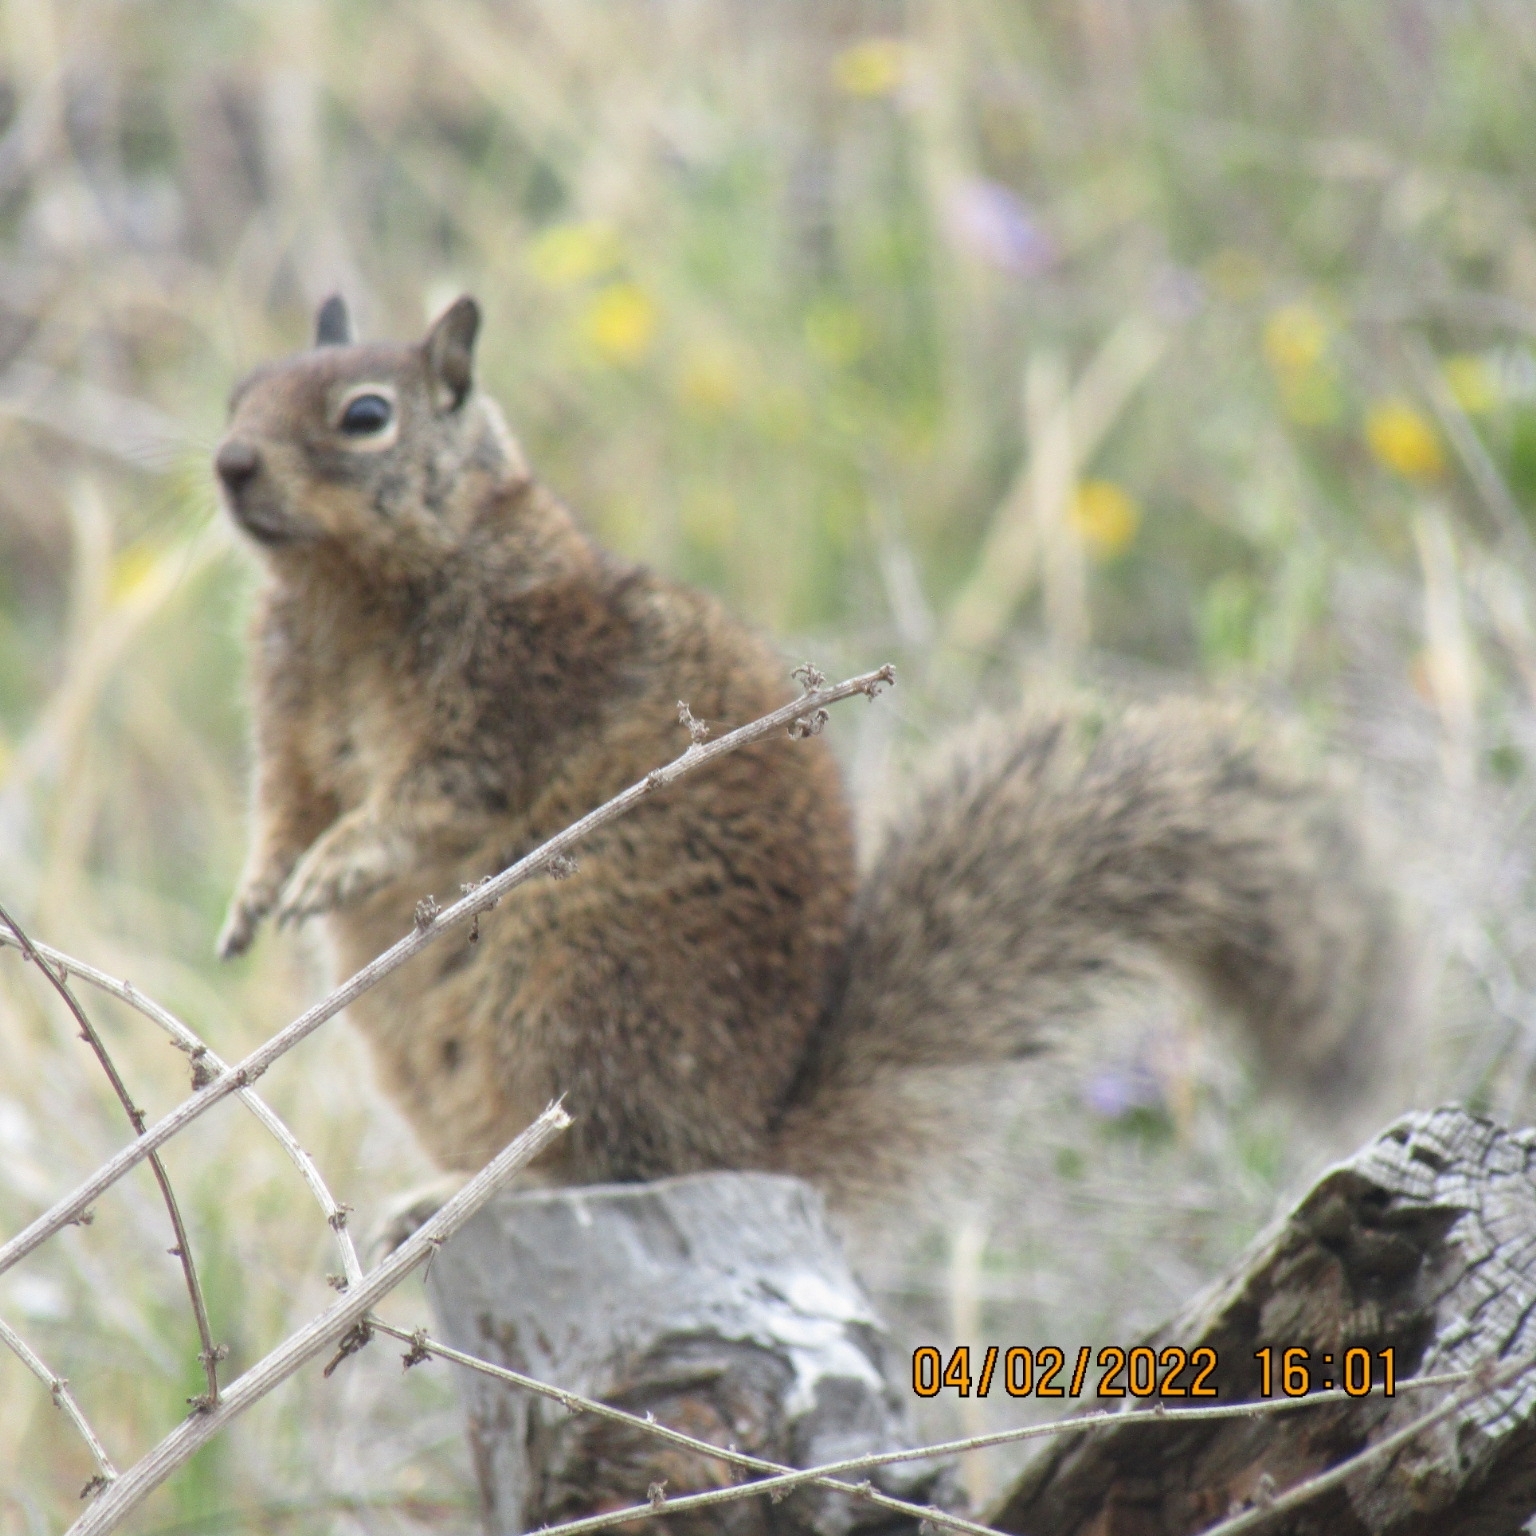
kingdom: Animalia
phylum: Chordata
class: Mammalia
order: Rodentia
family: Sciuridae
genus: Otospermophilus
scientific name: Otospermophilus beecheyi
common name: California ground squirrel
